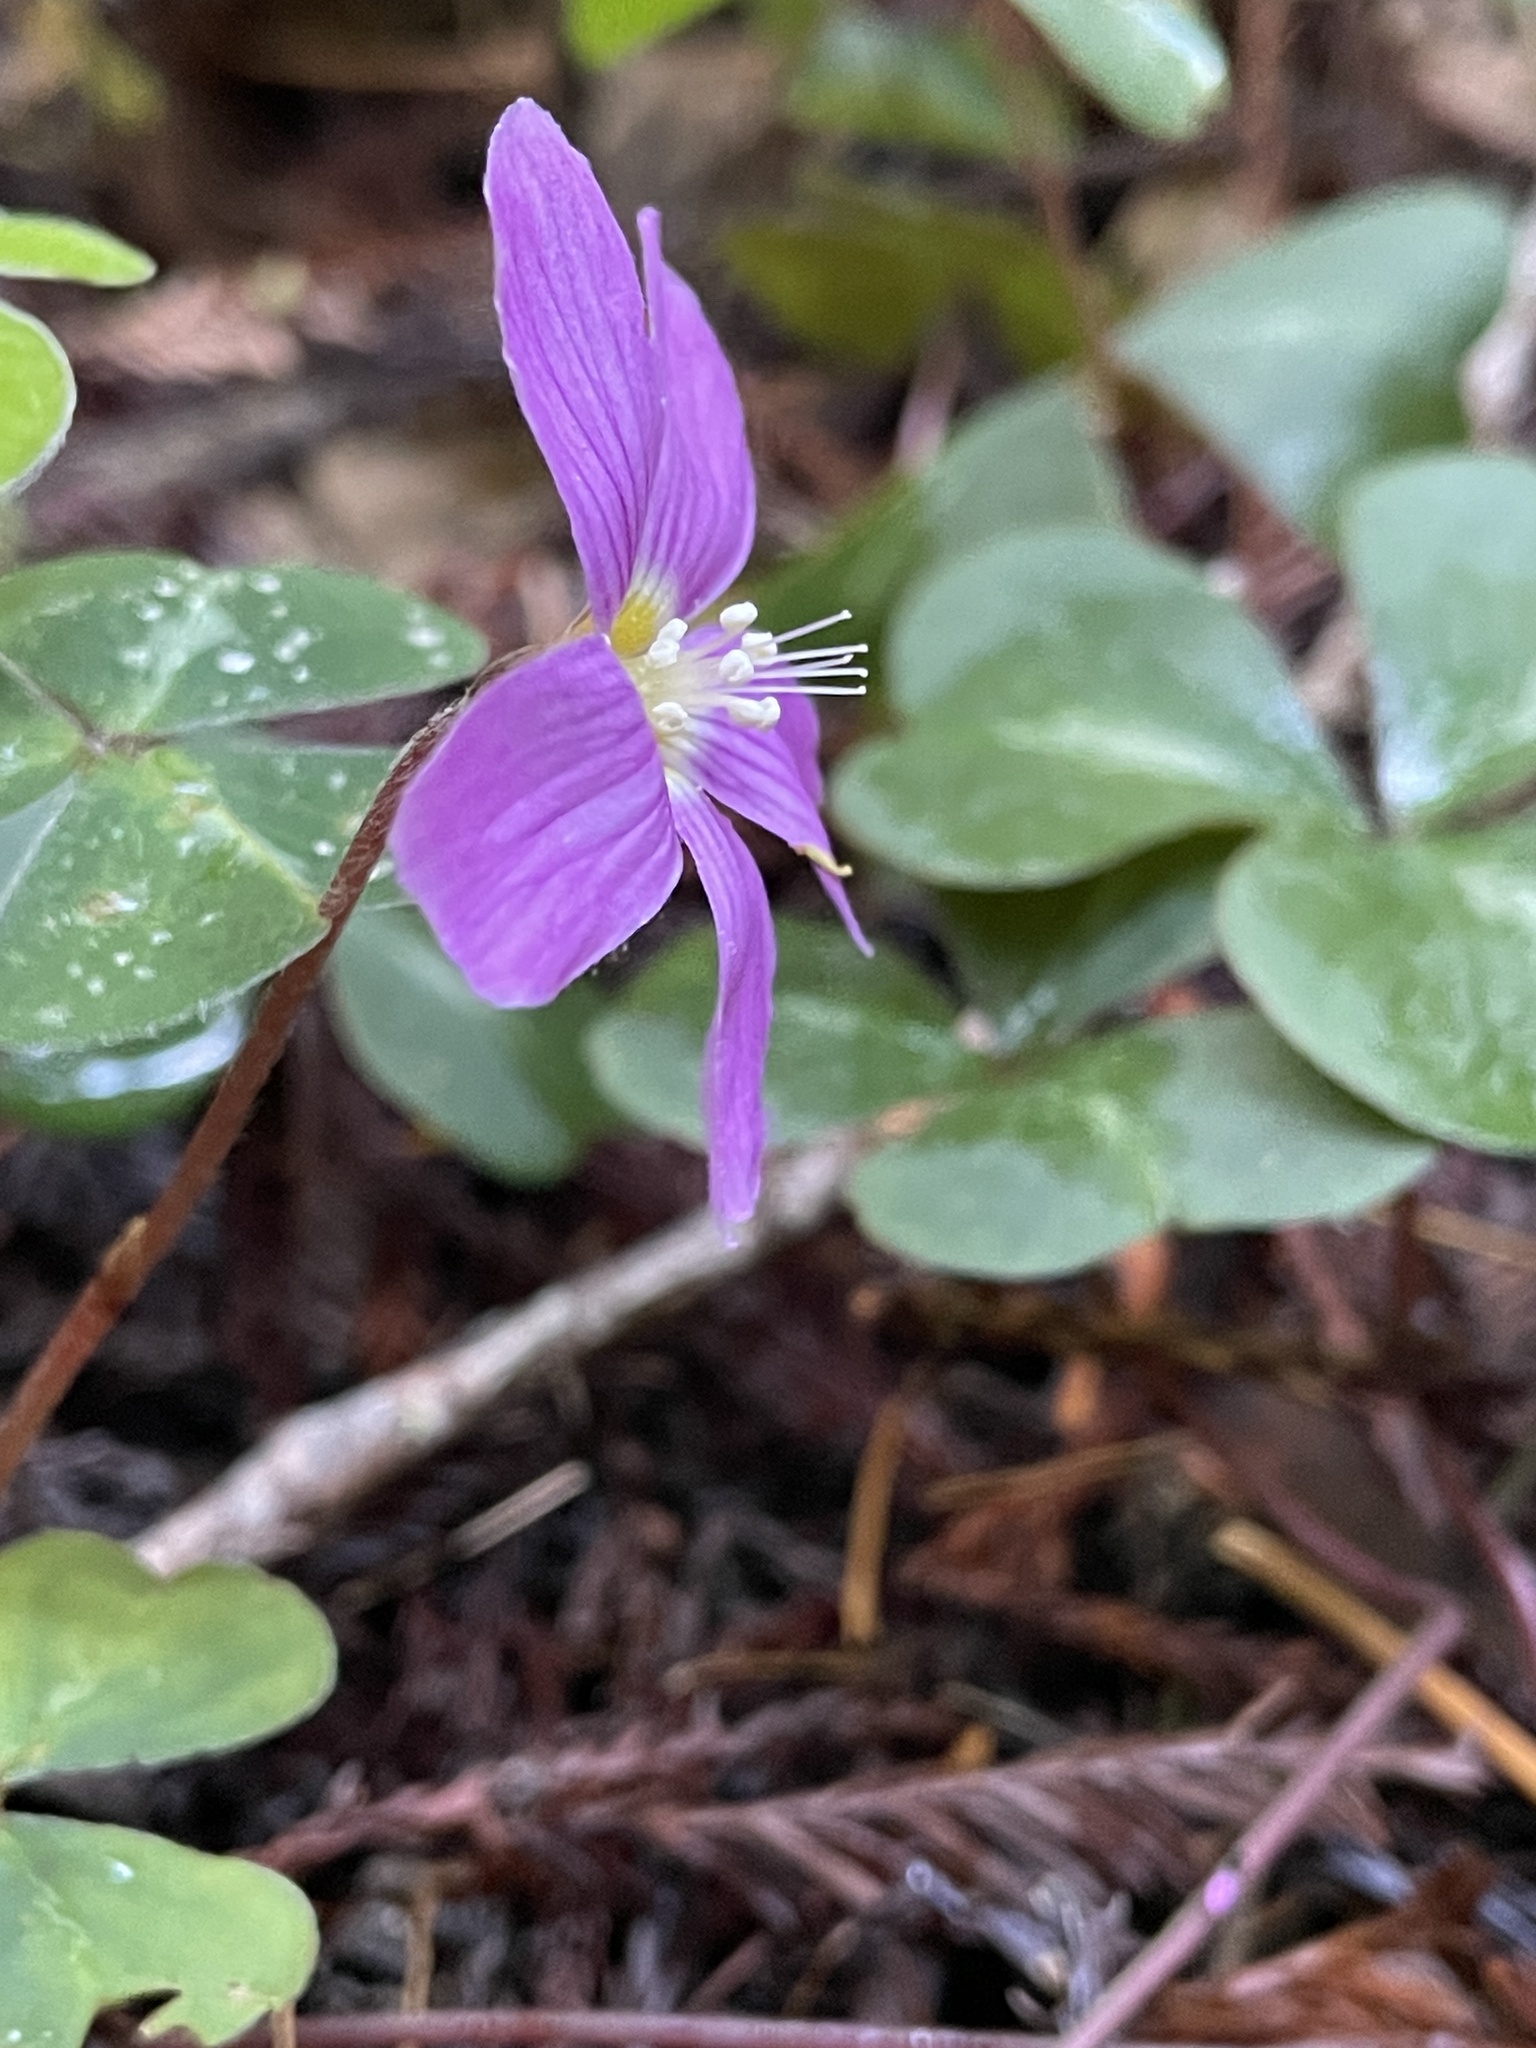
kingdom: Plantae
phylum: Tracheophyta
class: Magnoliopsida
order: Oxalidales
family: Oxalidaceae
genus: Oxalis
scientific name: Oxalis oregana
